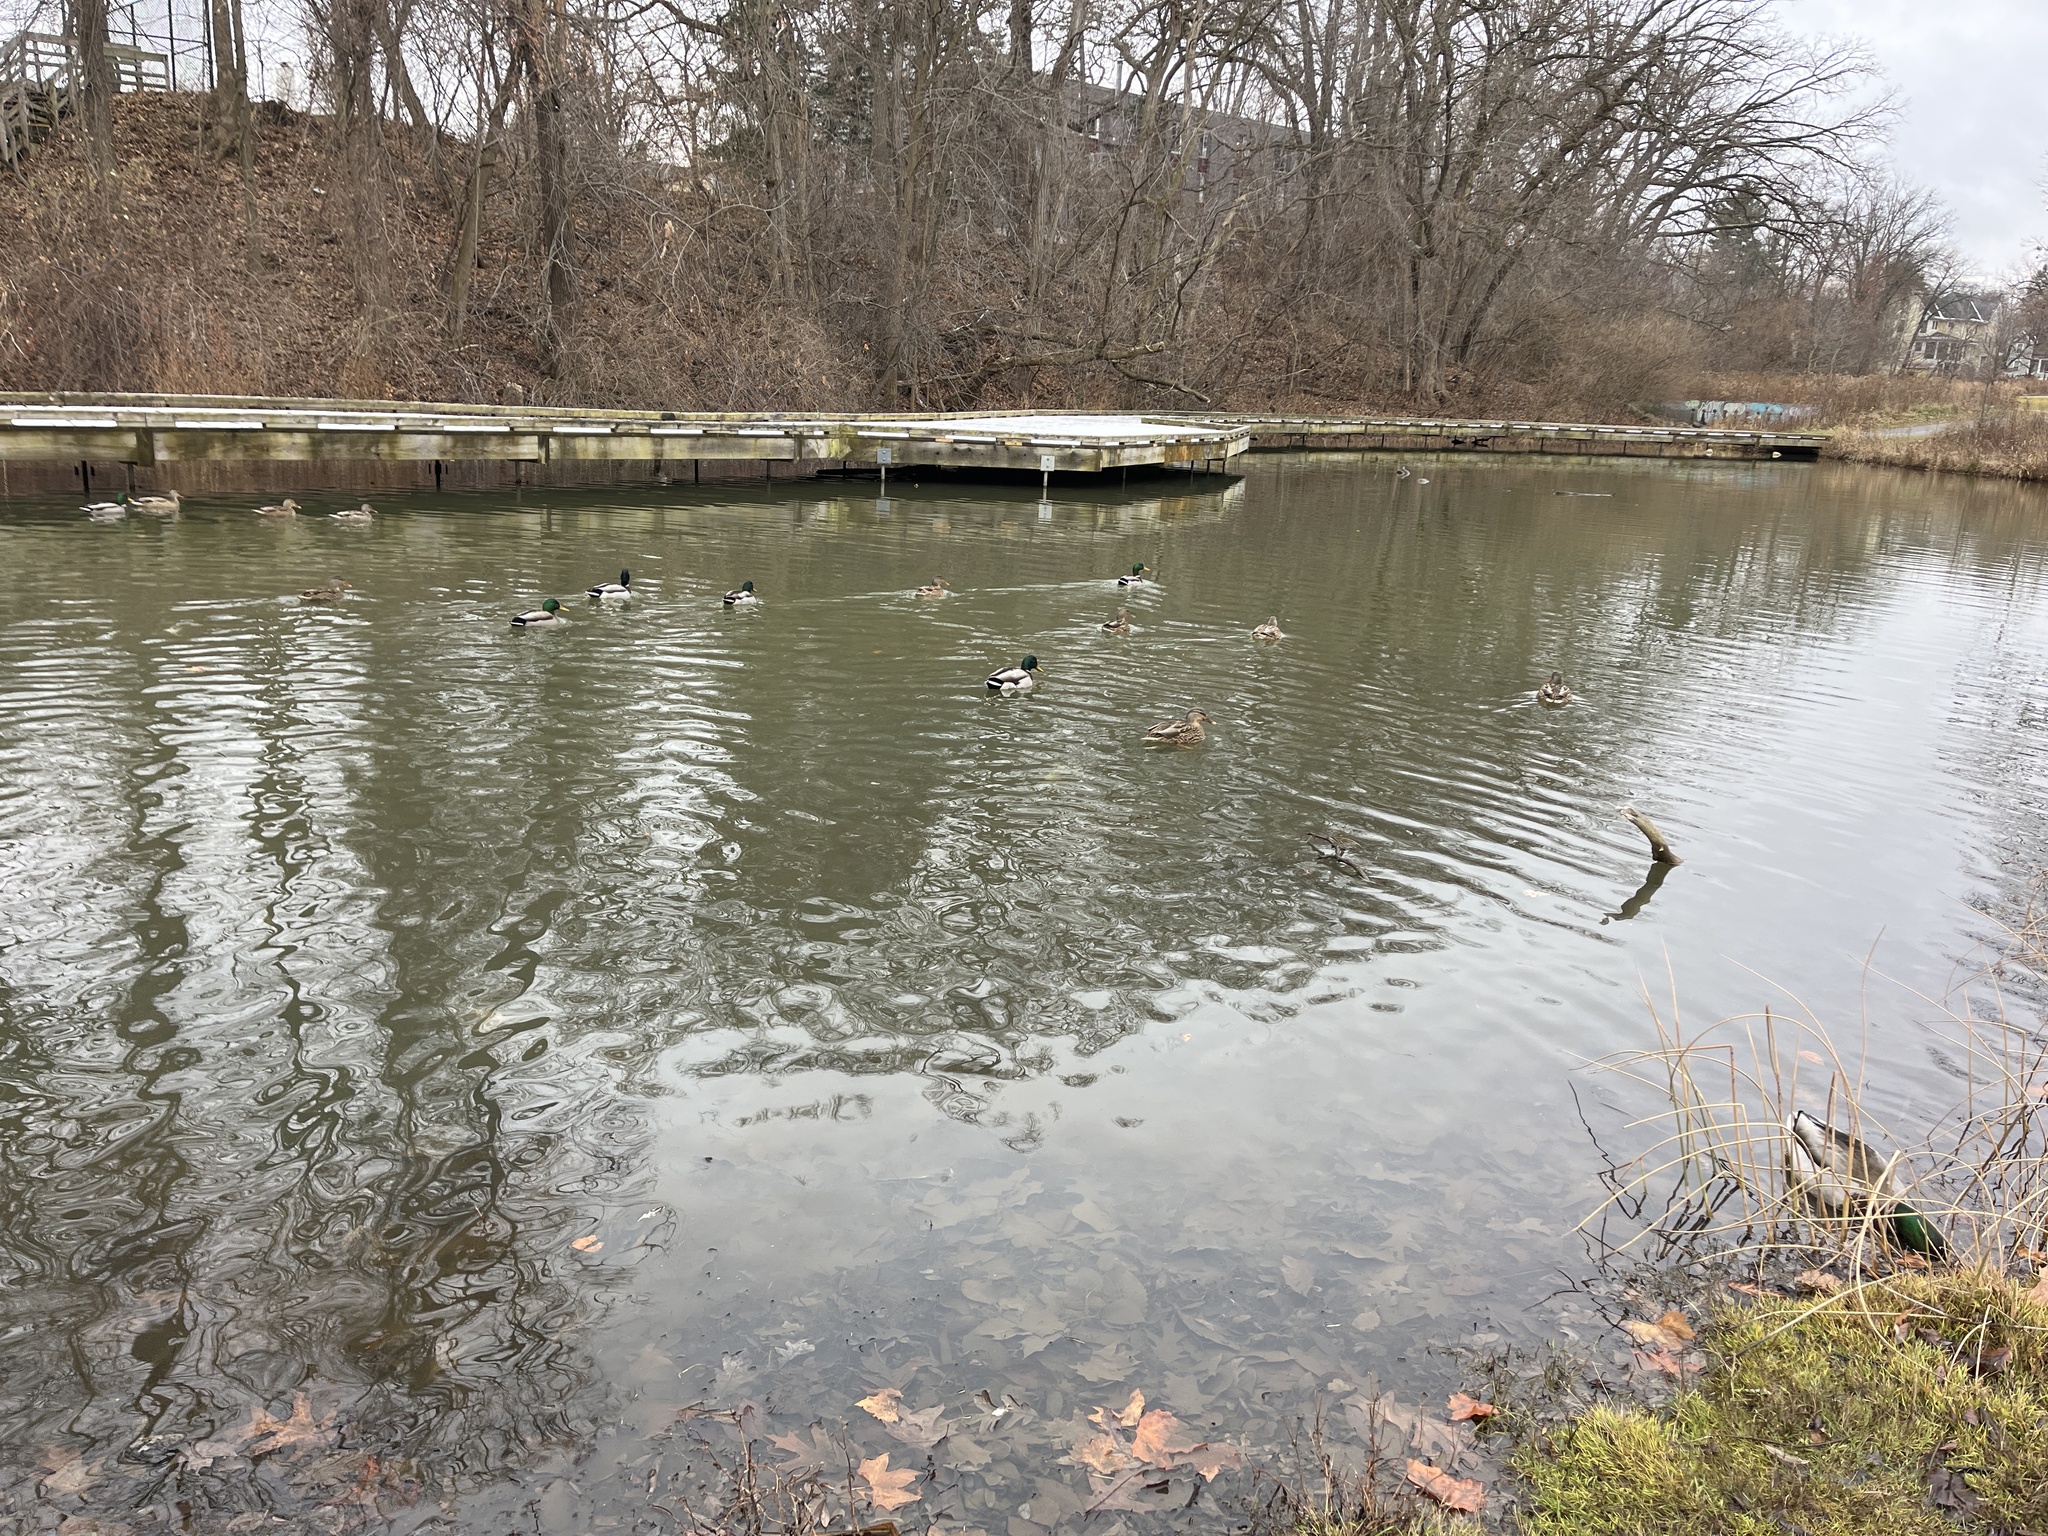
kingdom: Animalia
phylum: Chordata
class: Aves
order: Anseriformes
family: Anatidae
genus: Anas
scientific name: Anas platyrhynchos
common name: Mallard
